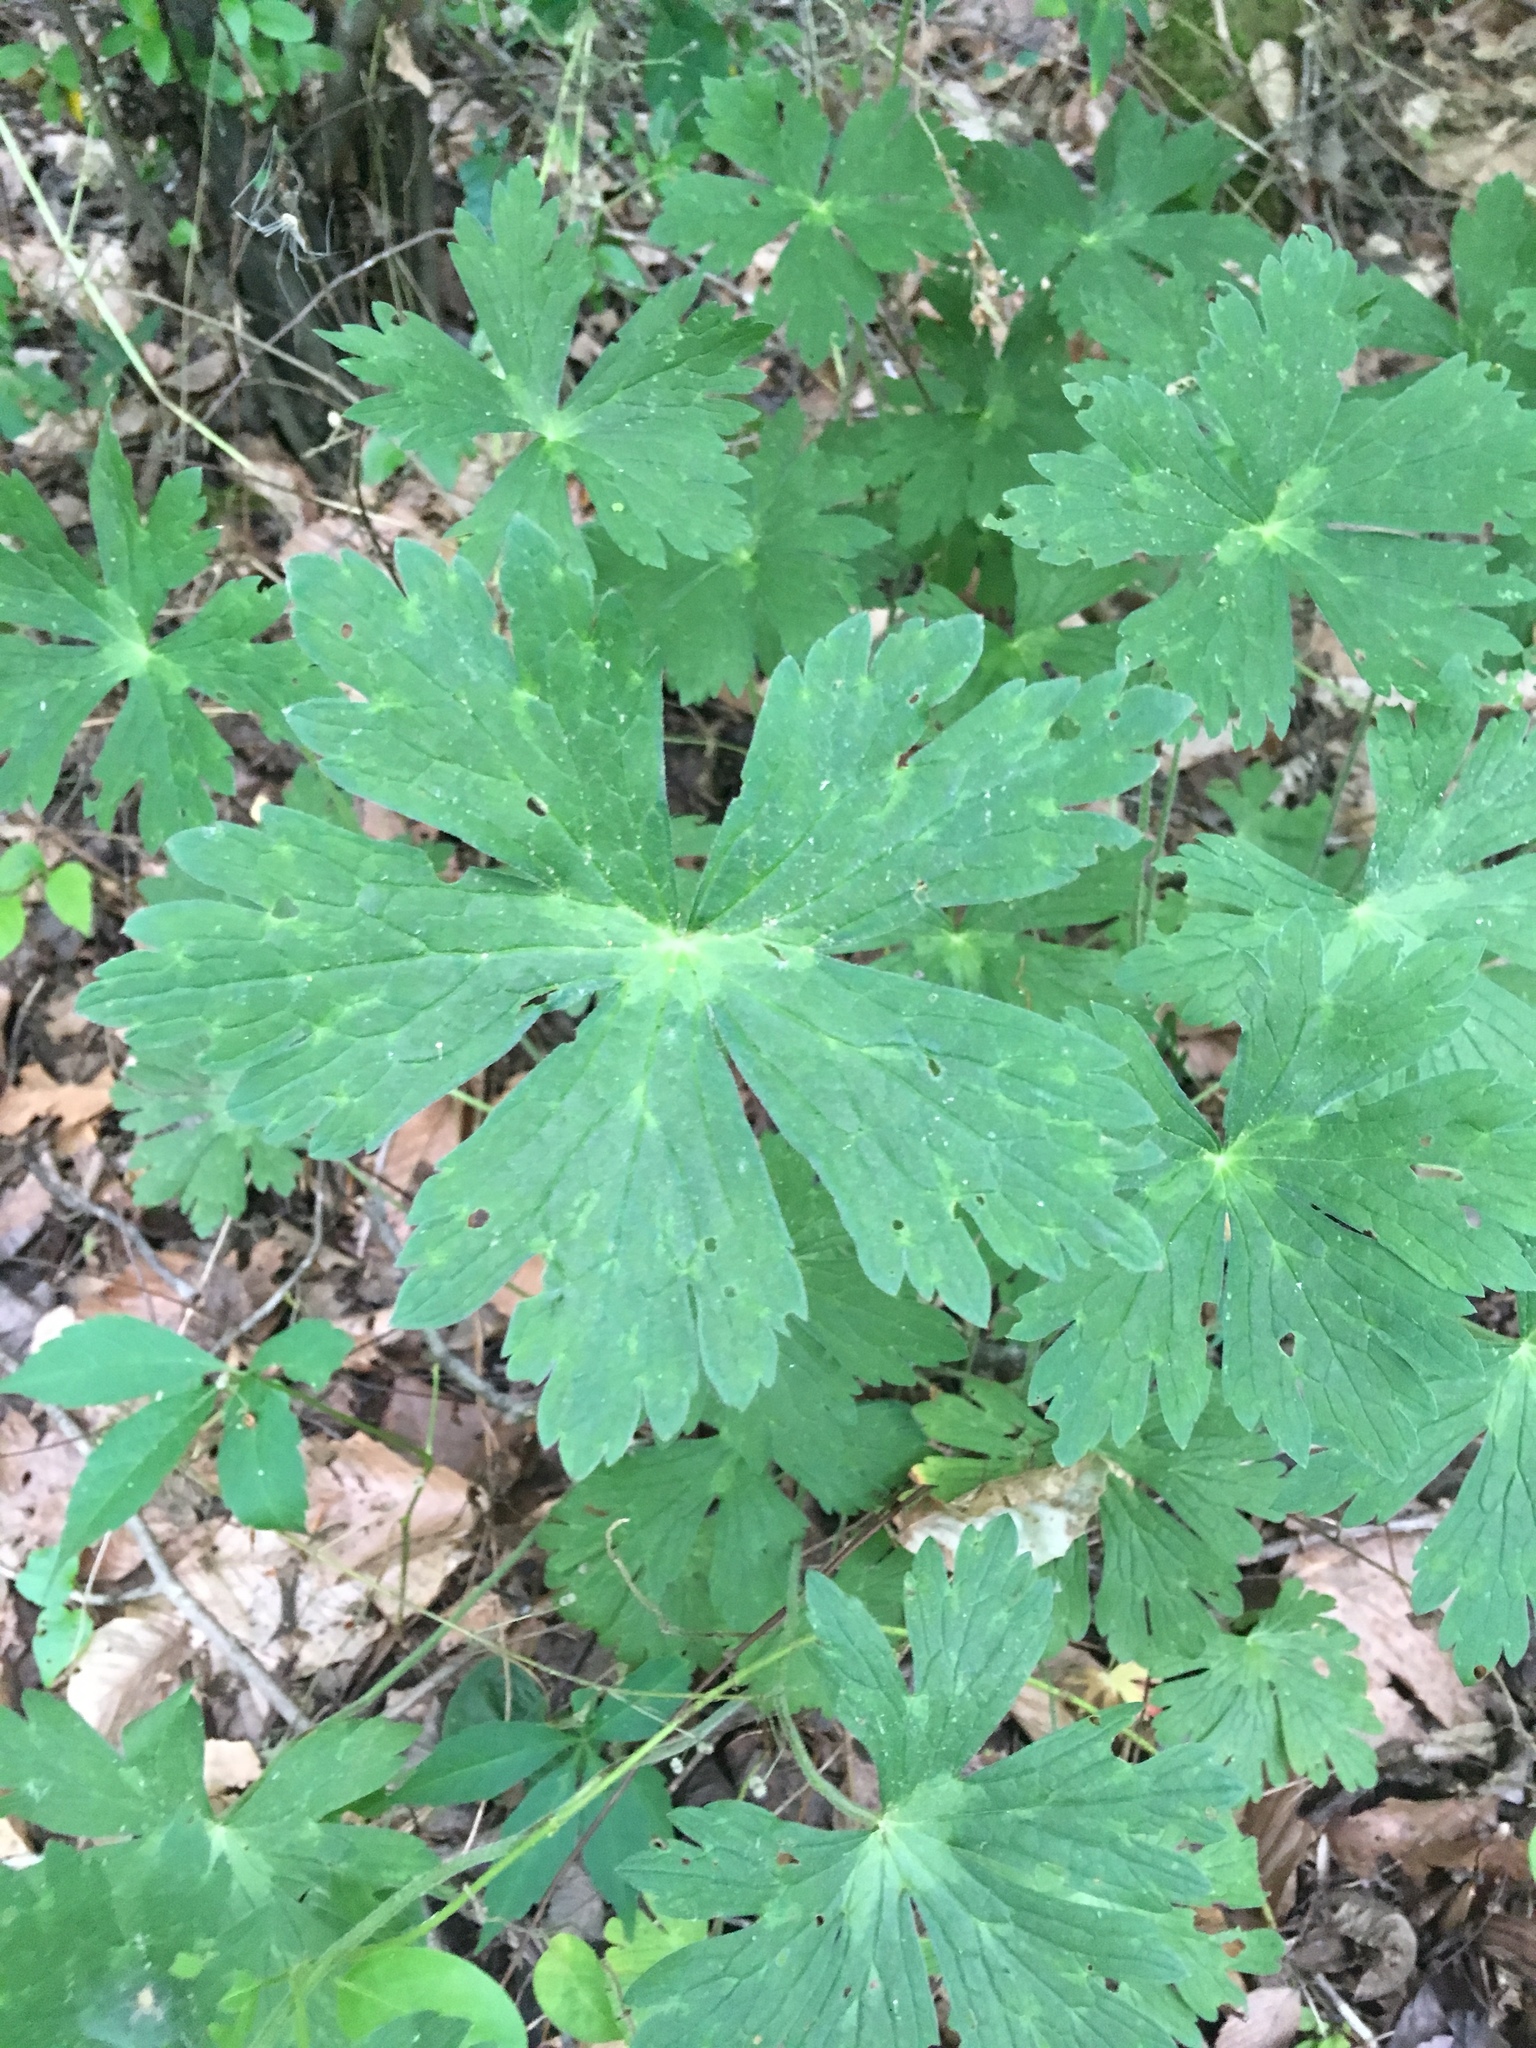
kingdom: Plantae
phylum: Tracheophyta
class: Magnoliopsida
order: Geraniales
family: Geraniaceae
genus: Geranium
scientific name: Geranium maculatum
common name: Spotted geranium
